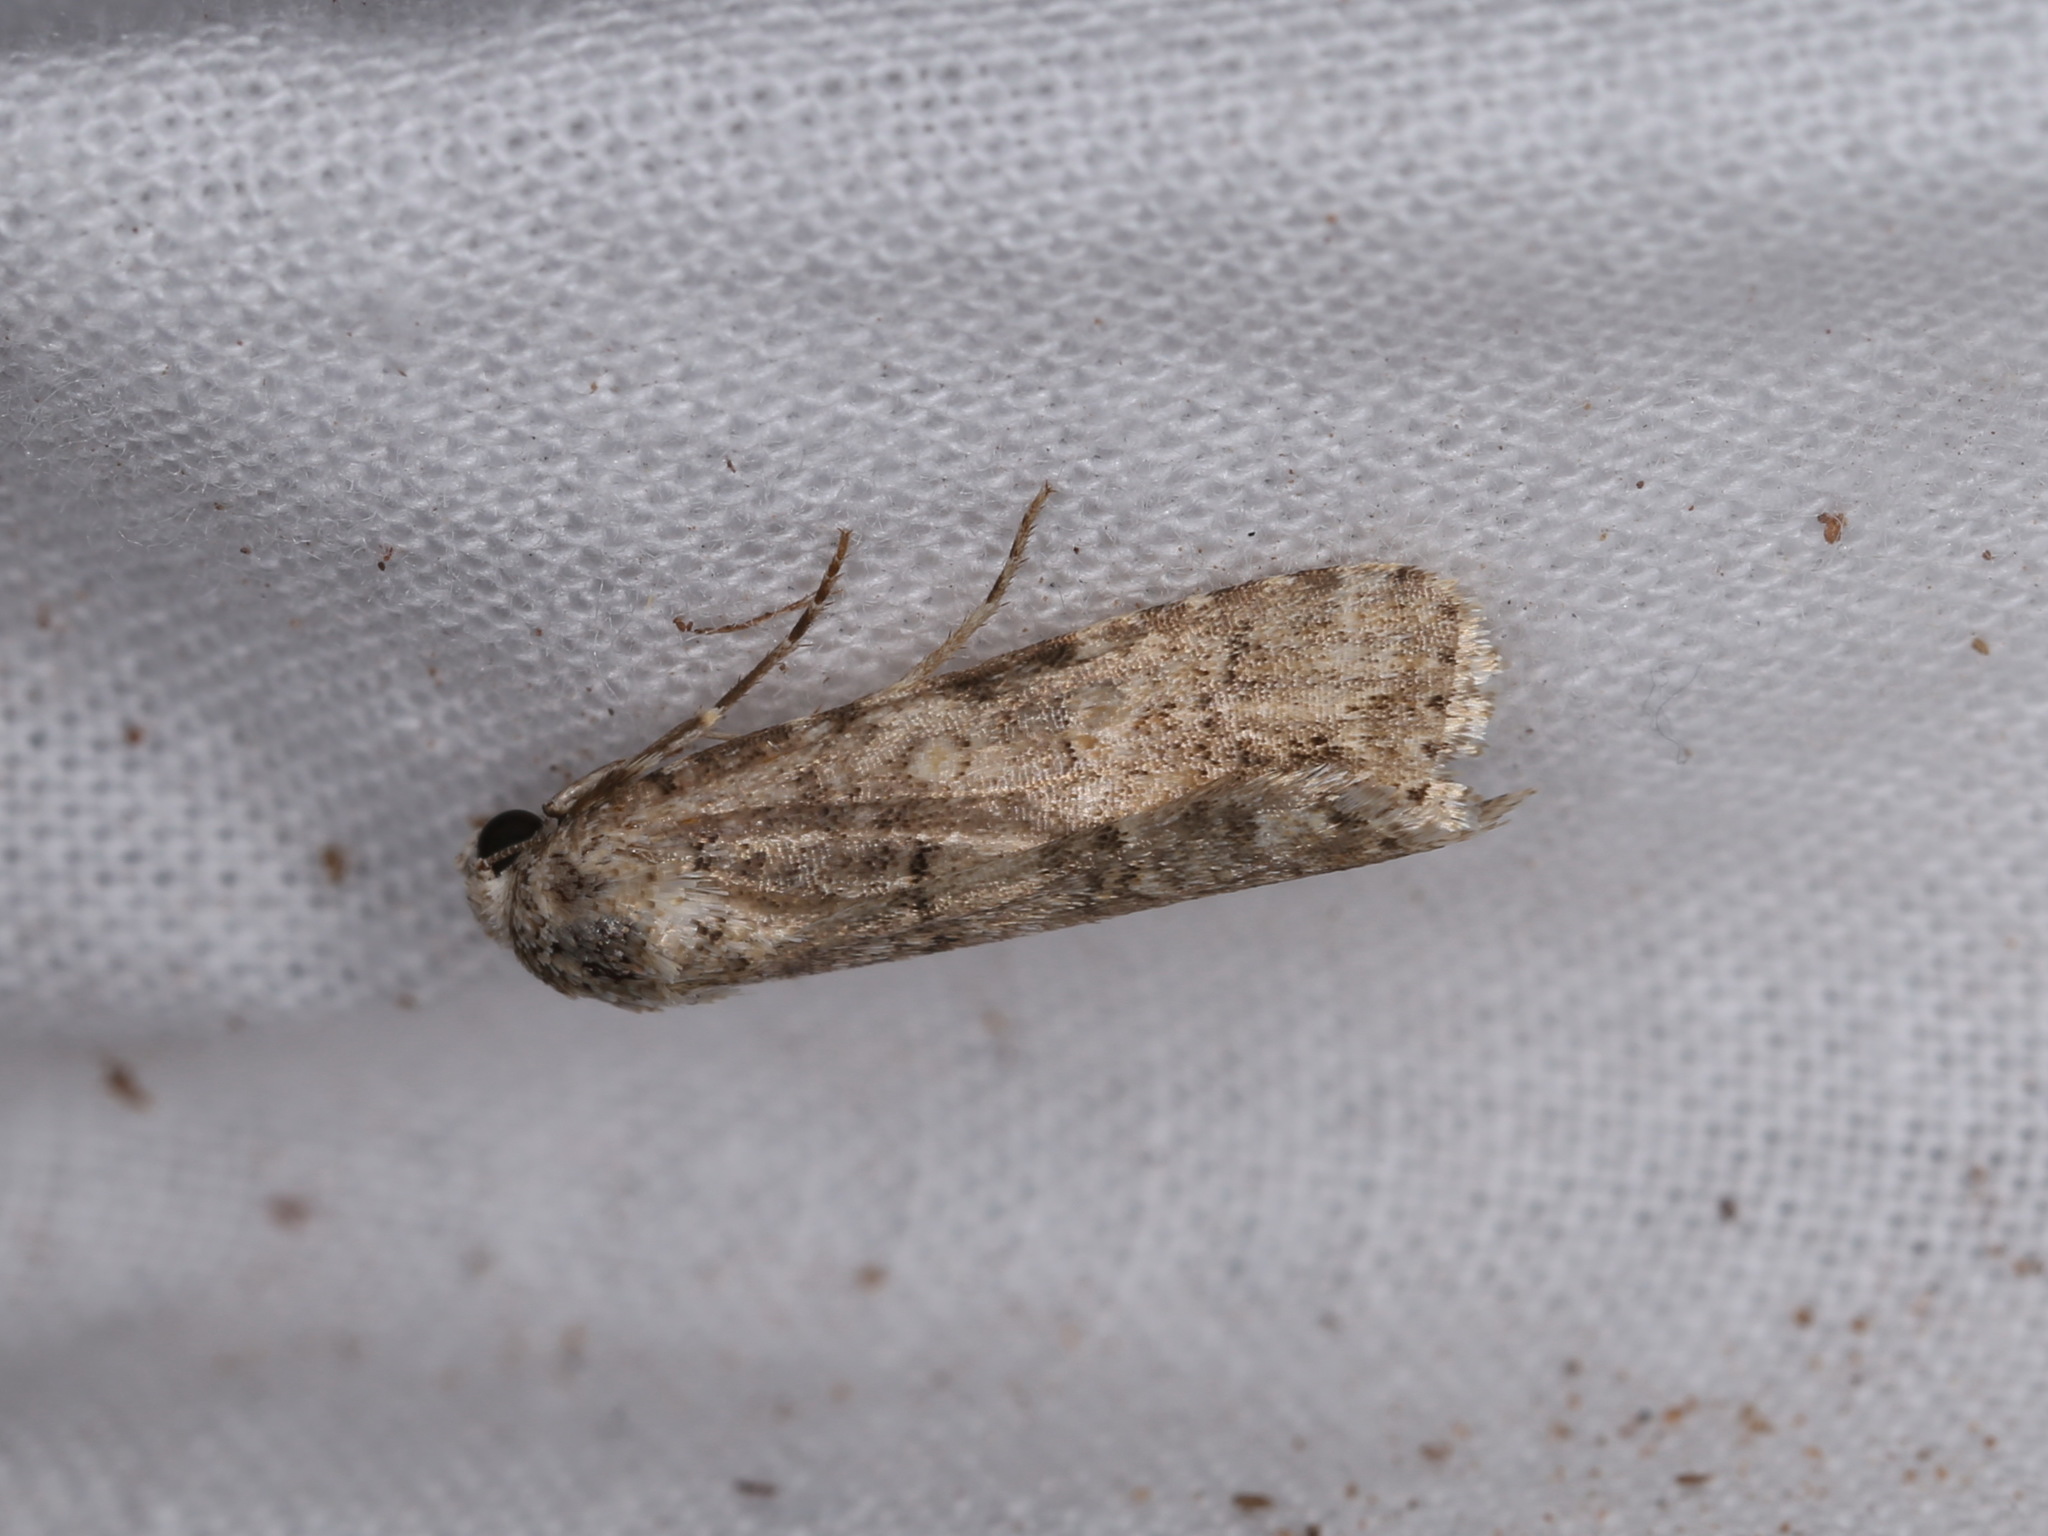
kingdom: Animalia
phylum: Arthropoda
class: Insecta
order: Lepidoptera
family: Noctuidae
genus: Spodoptera
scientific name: Spodoptera exigua
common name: Beet armyworm
